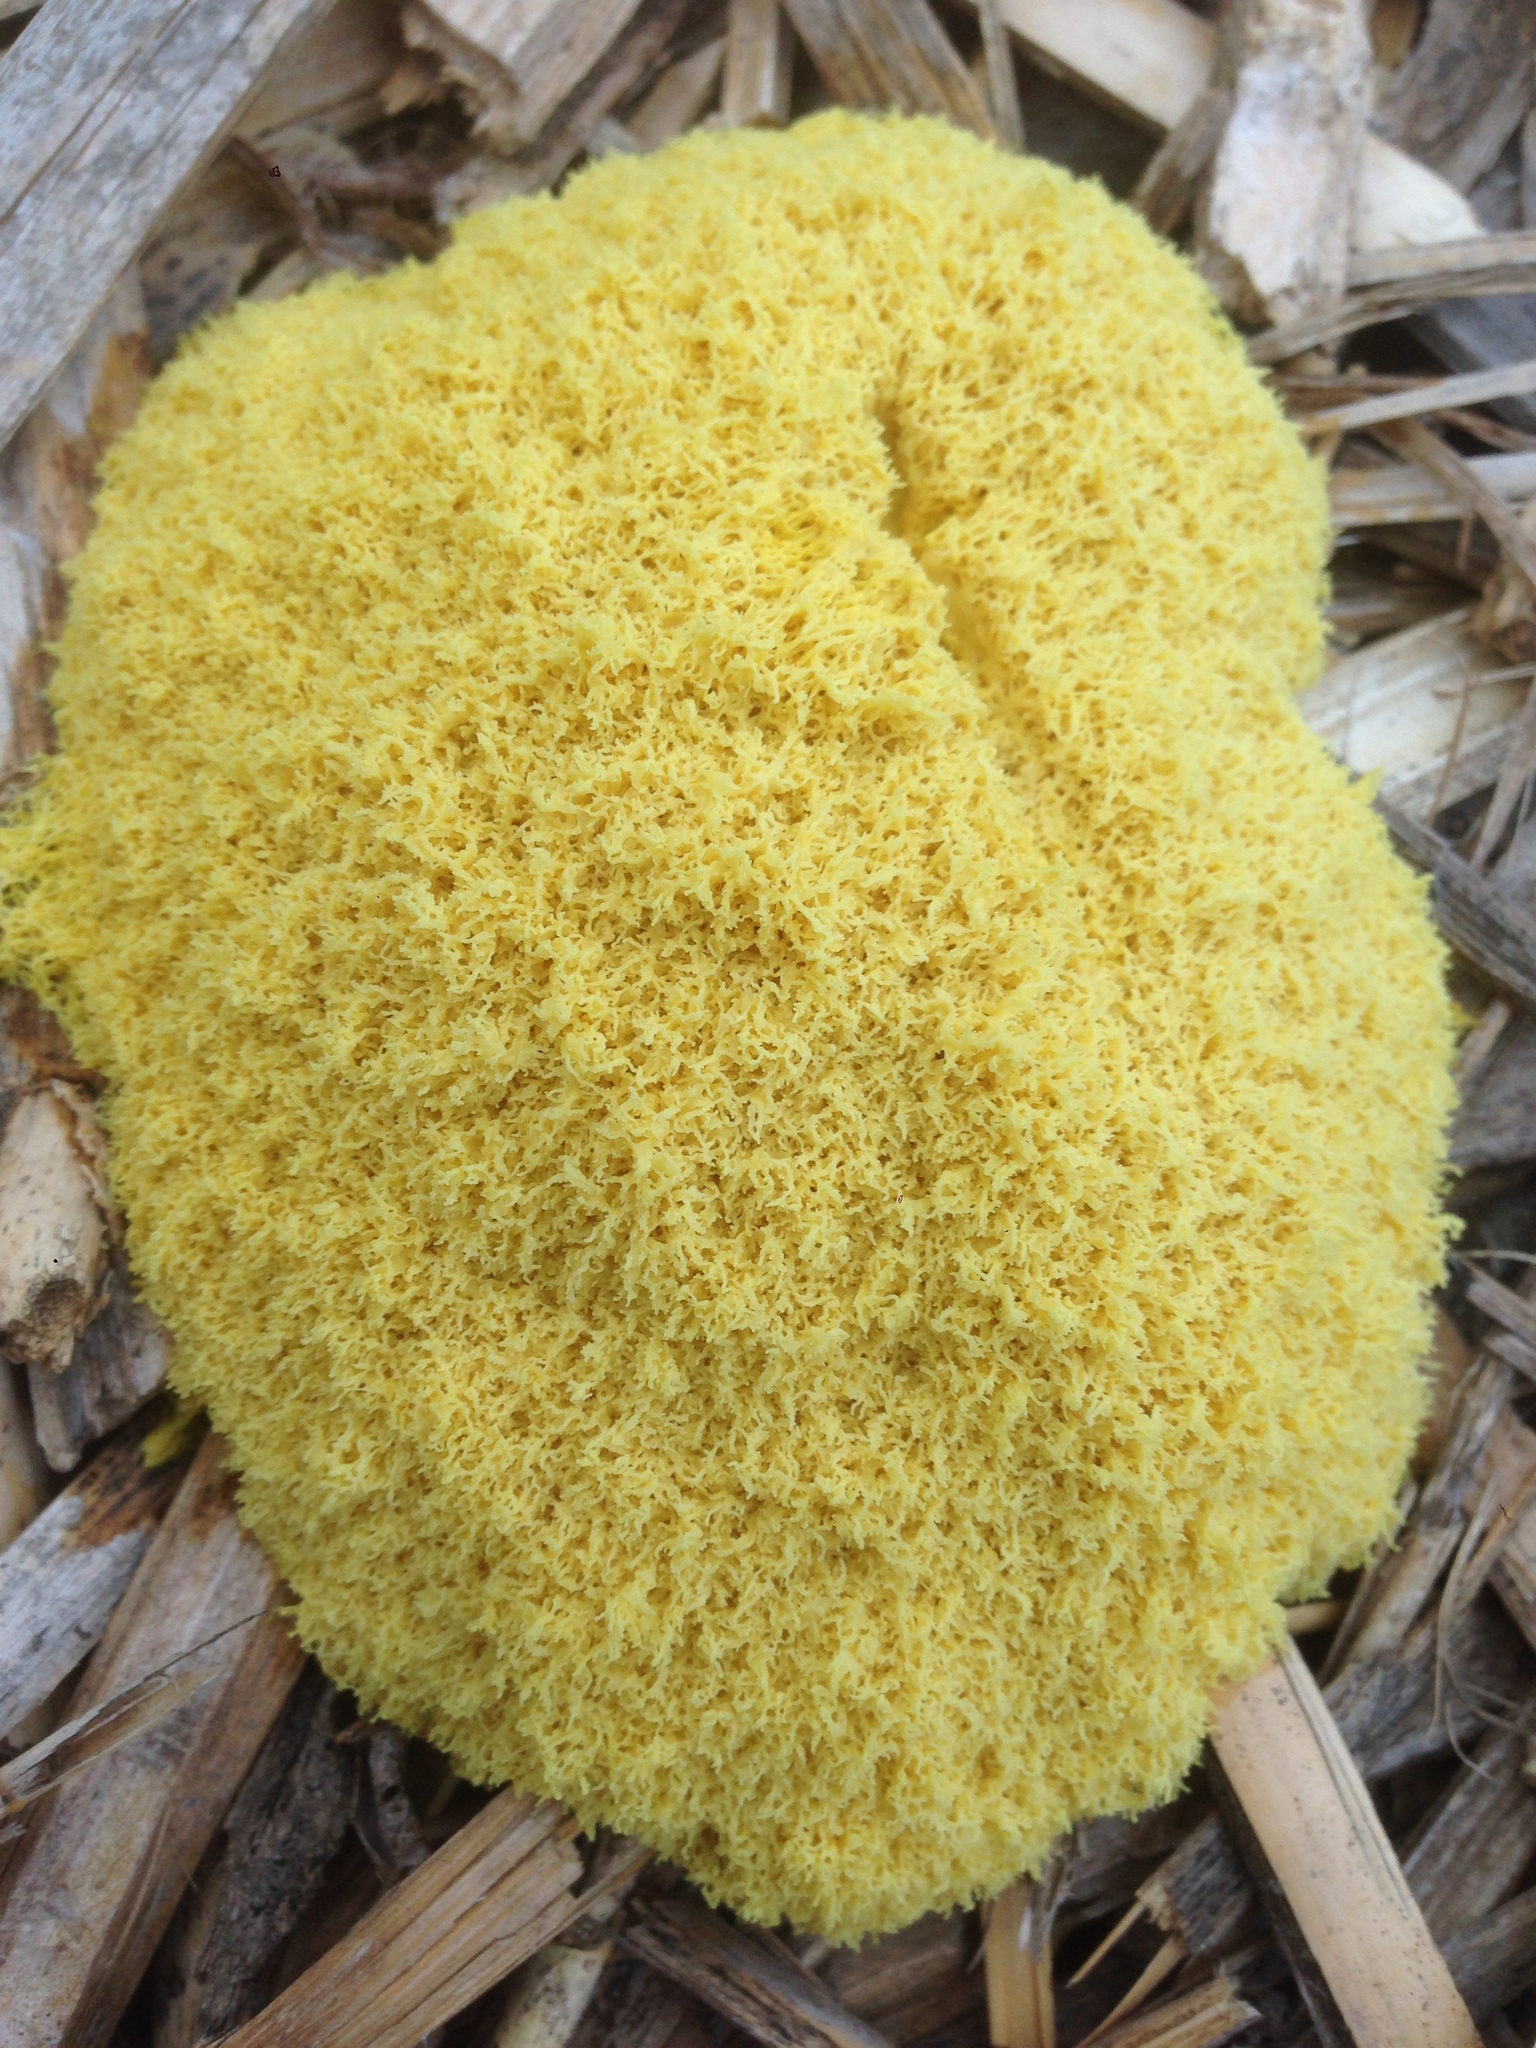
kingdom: Protozoa
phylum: Mycetozoa
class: Myxomycetes
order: Physarales
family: Physaraceae
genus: Fuligo
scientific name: Fuligo septica
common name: Dog vomit slime mold
